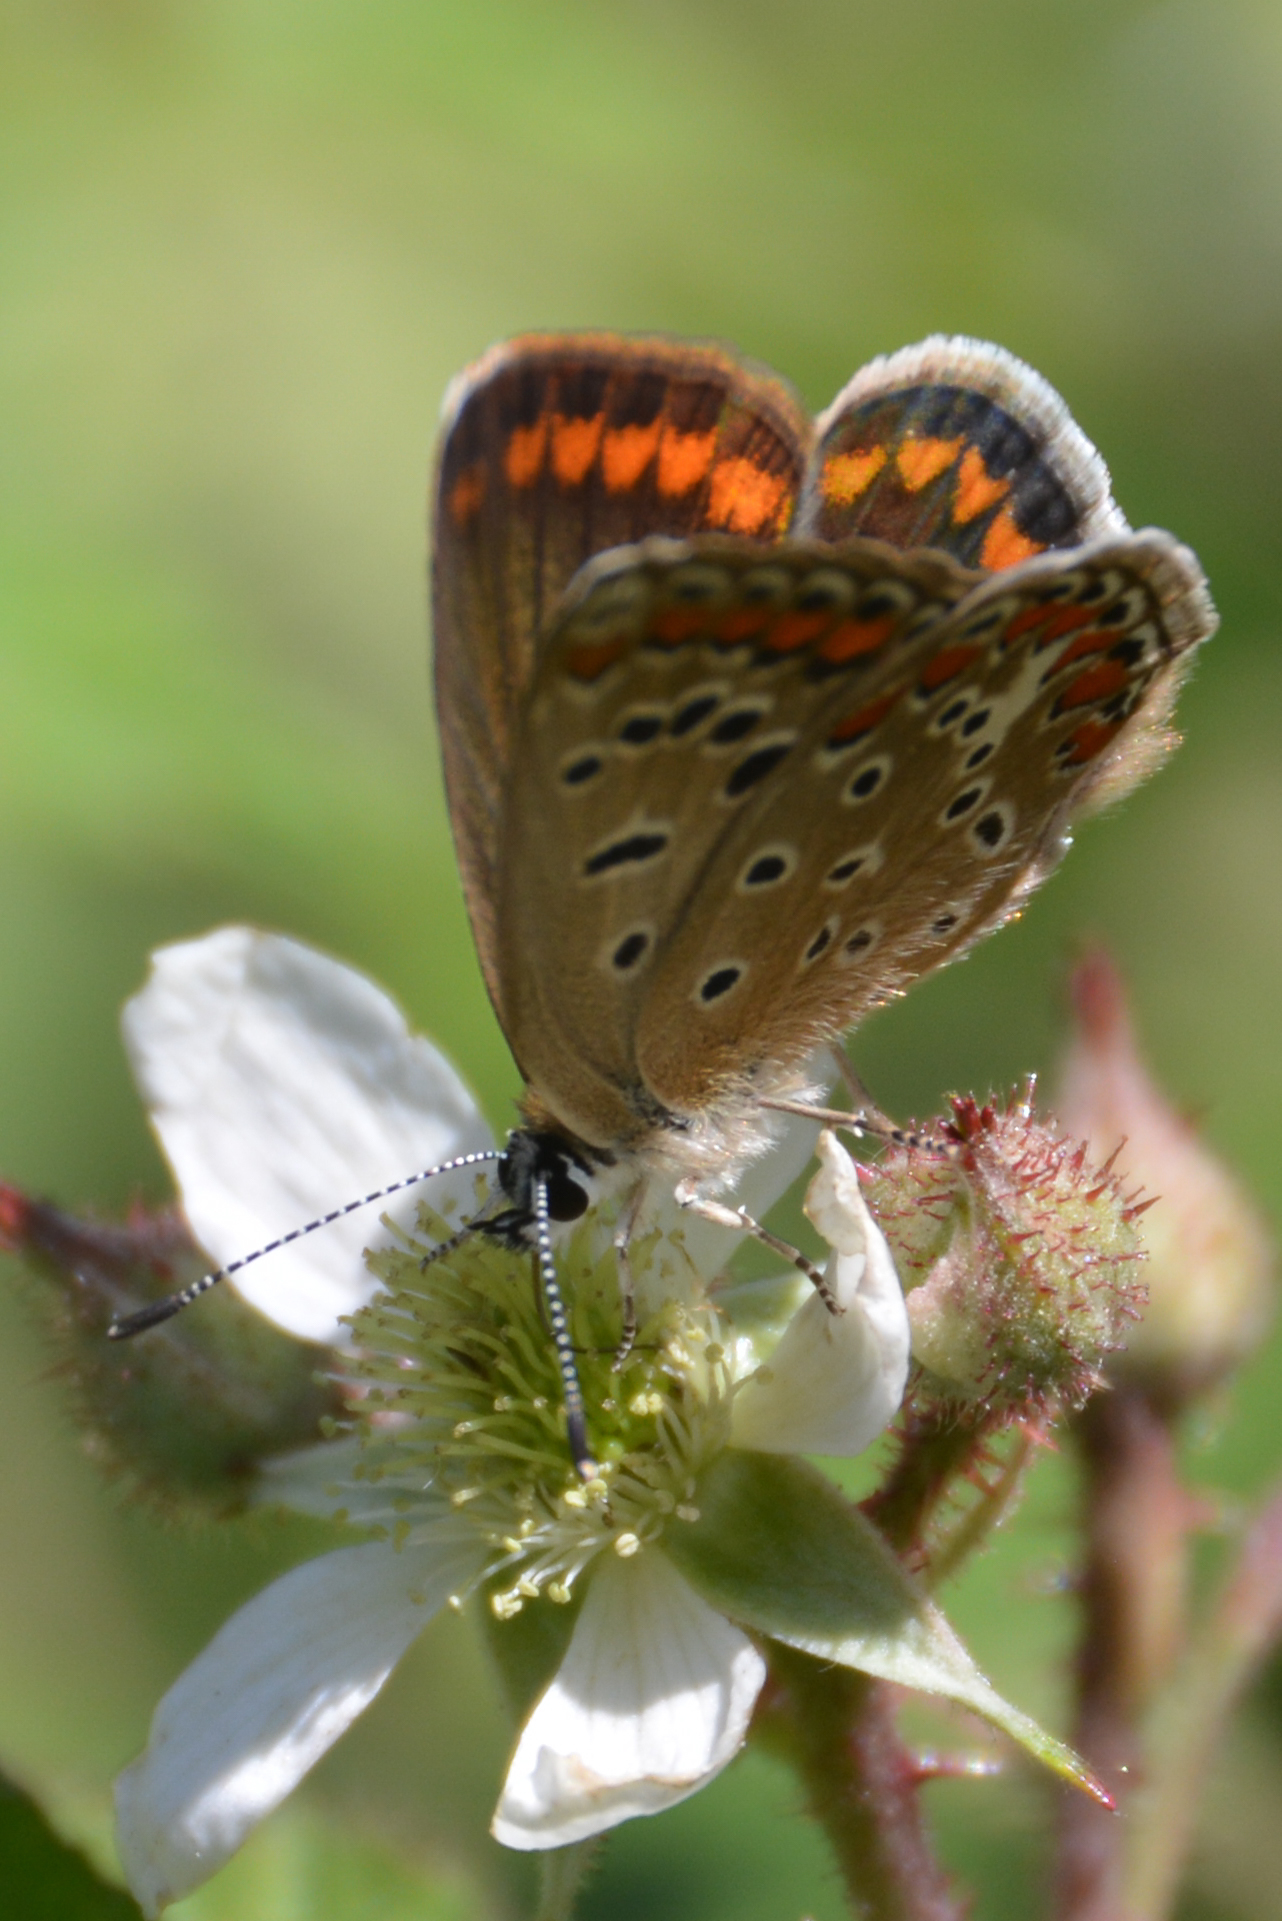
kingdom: Animalia
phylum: Arthropoda
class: Insecta
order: Lepidoptera
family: Lycaenidae
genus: Polyommatus
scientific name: Polyommatus celina
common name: Austaut's blue
